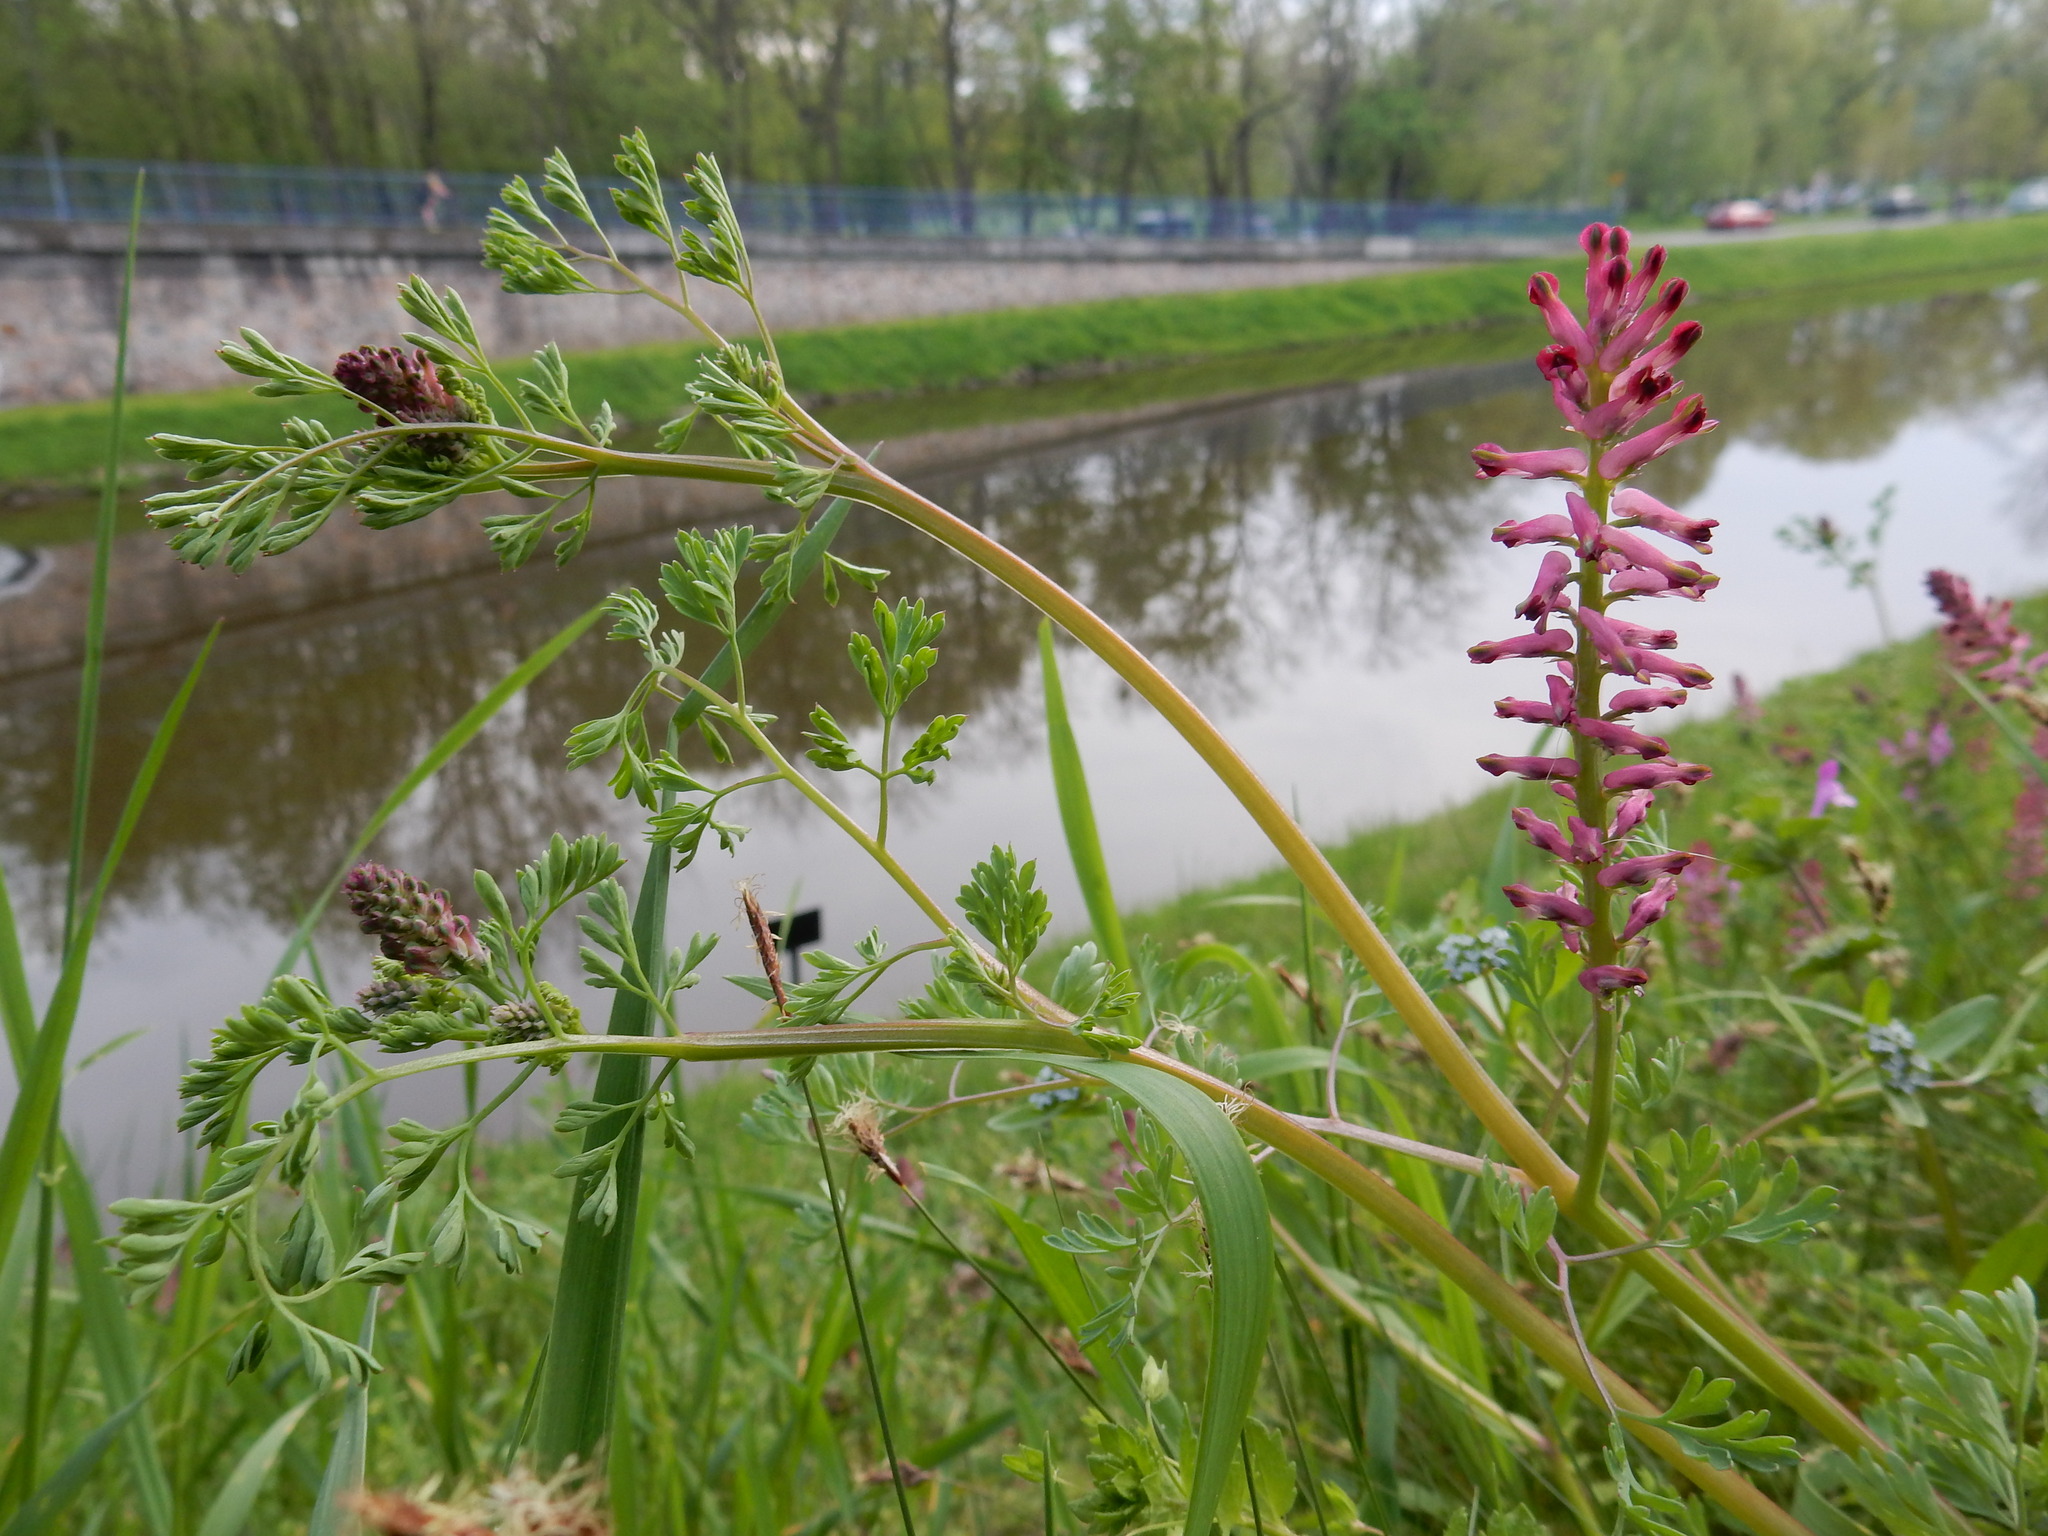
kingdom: Plantae
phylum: Tracheophyta
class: Magnoliopsida
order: Ranunculales
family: Papaveraceae
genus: Fumaria
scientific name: Fumaria officinalis
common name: Common fumitory
